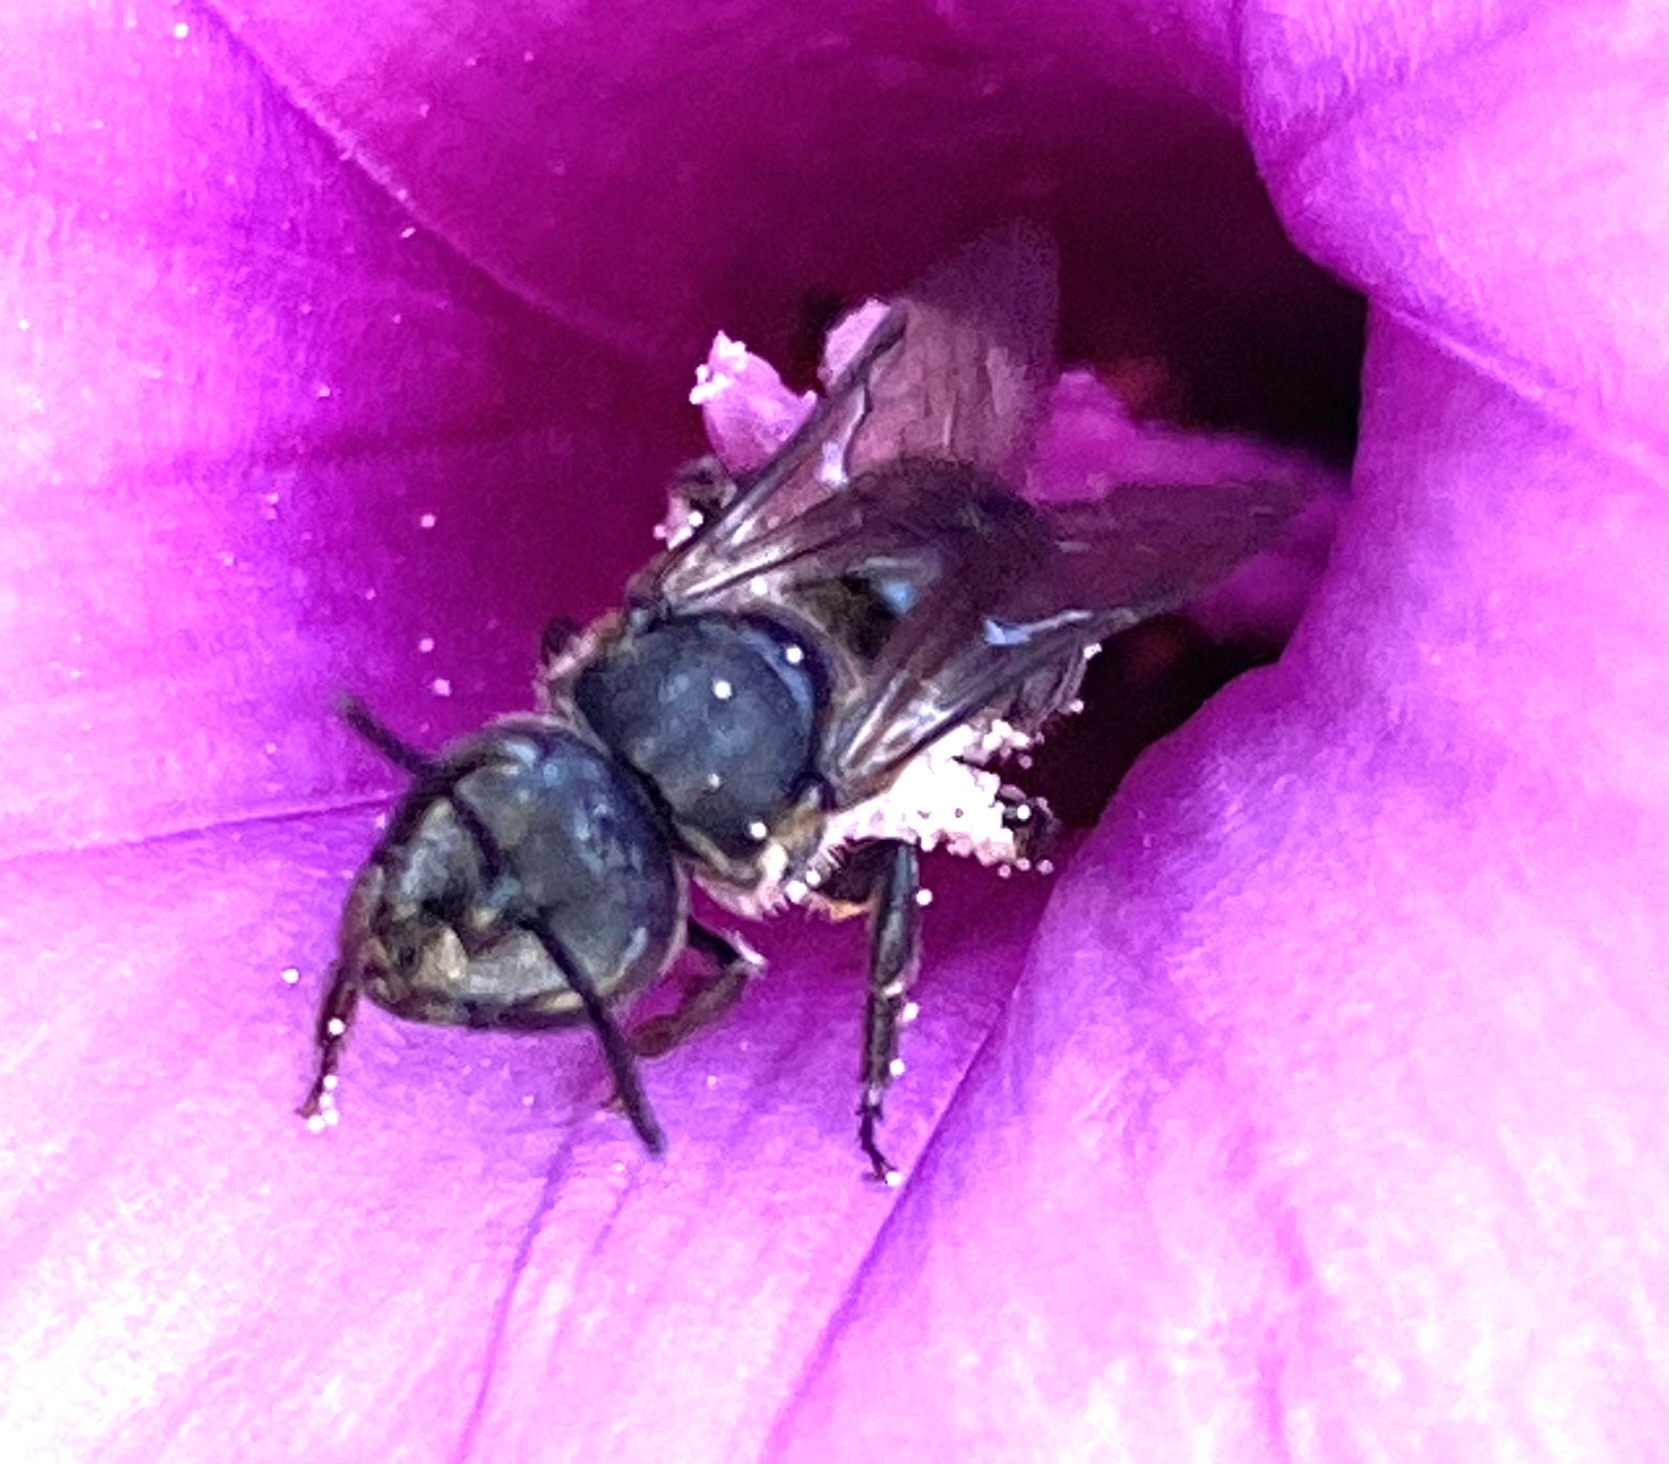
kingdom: Animalia
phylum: Arthropoda
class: Insecta
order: Hymenoptera
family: Halictidae
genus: Augochlora
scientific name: Augochlora nigrocyanea
